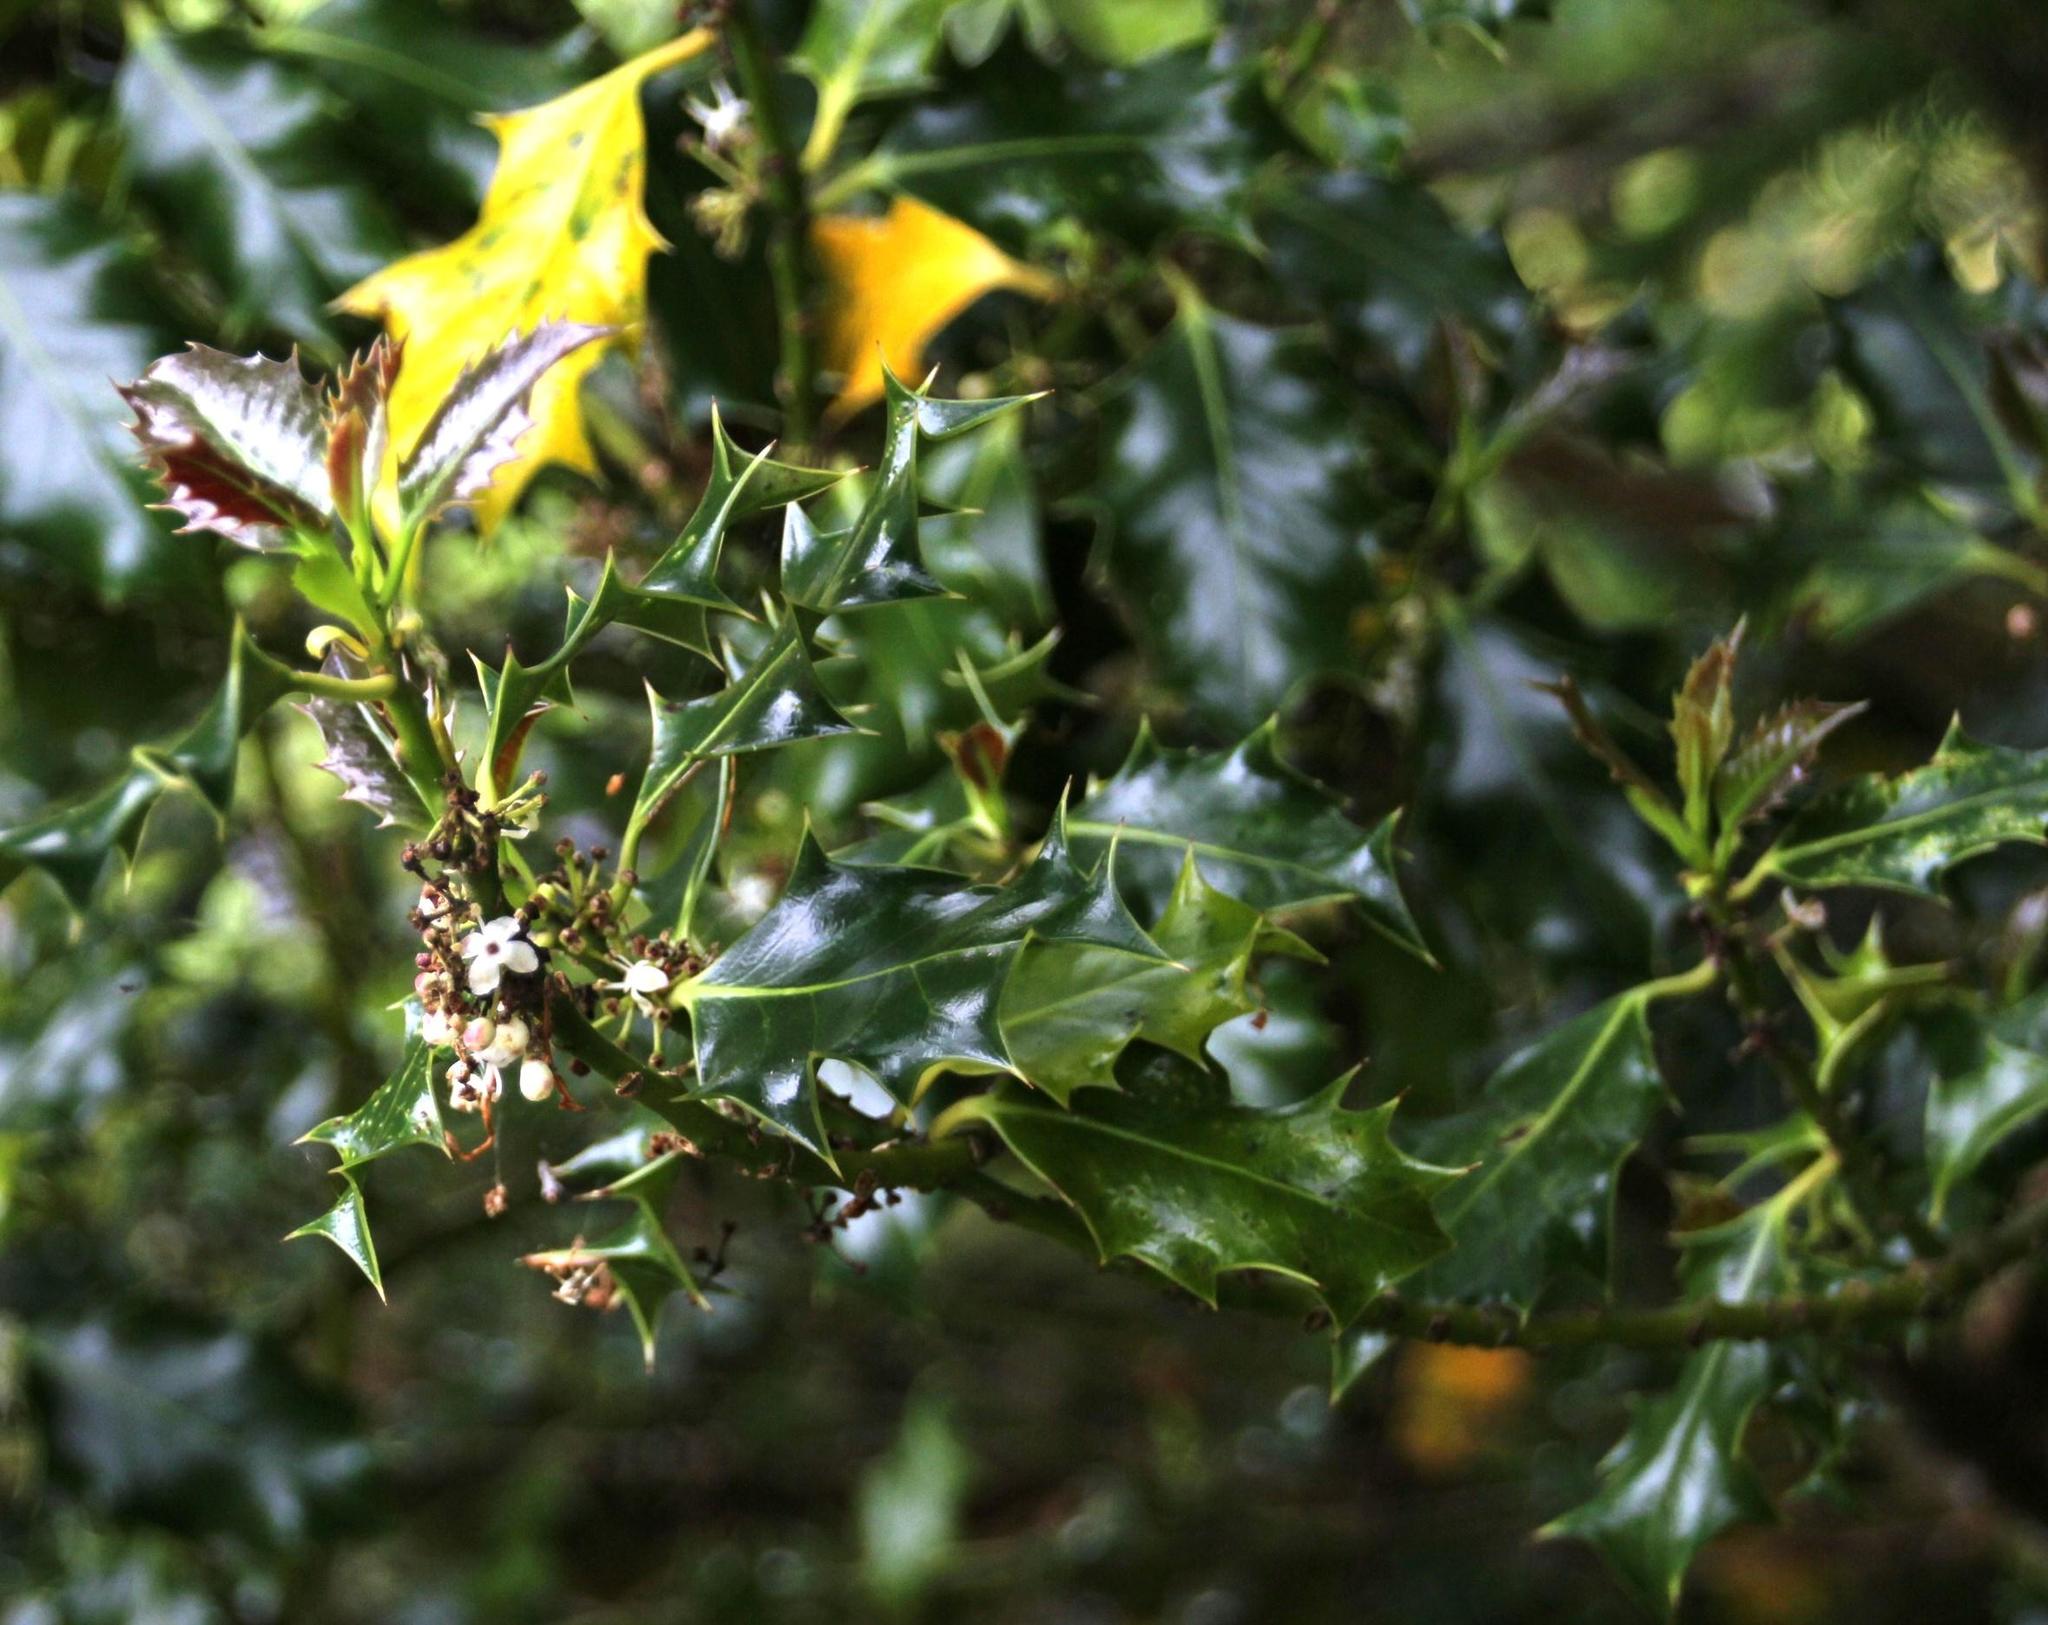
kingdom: Plantae
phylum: Tracheophyta
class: Magnoliopsida
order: Aquifoliales
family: Aquifoliaceae
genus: Ilex
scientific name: Ilex aquifolium
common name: English holly
